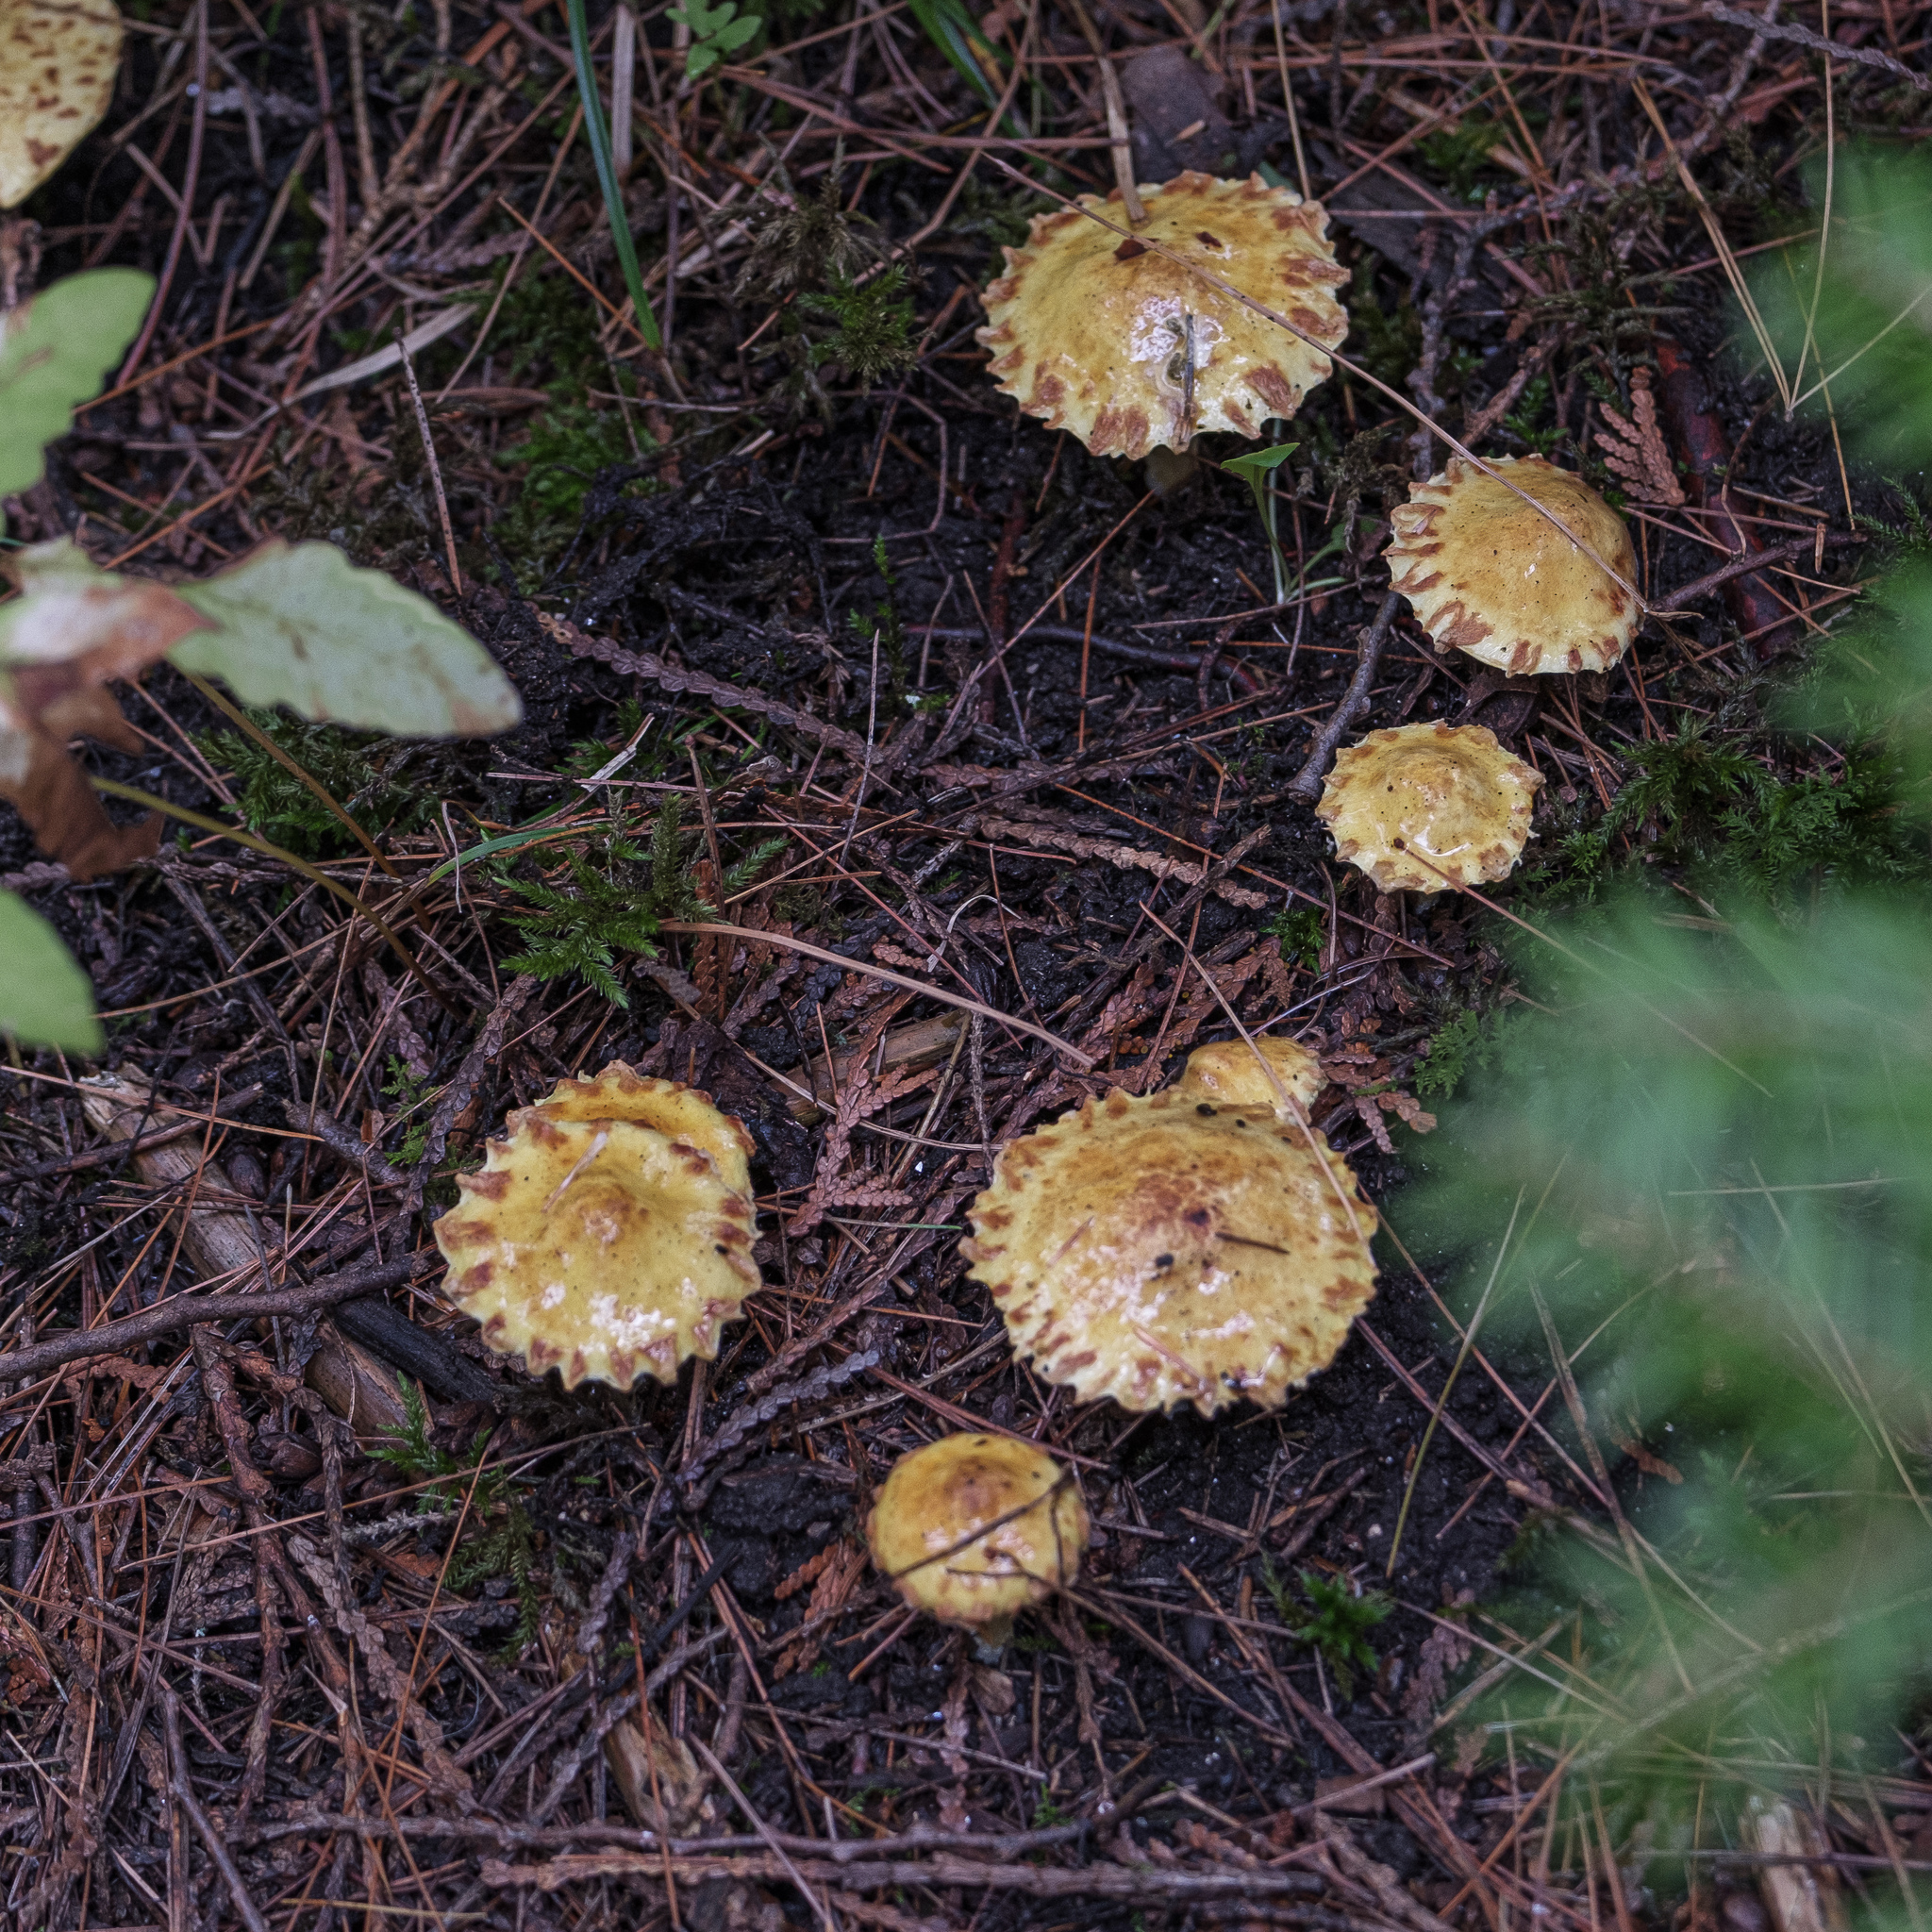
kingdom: Fungi
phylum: Basidiomycota
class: Agaricomycetes
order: Boletales
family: Suillaceae
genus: Suillus
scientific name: Suillus americanus
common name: Chicken fat mushroom
